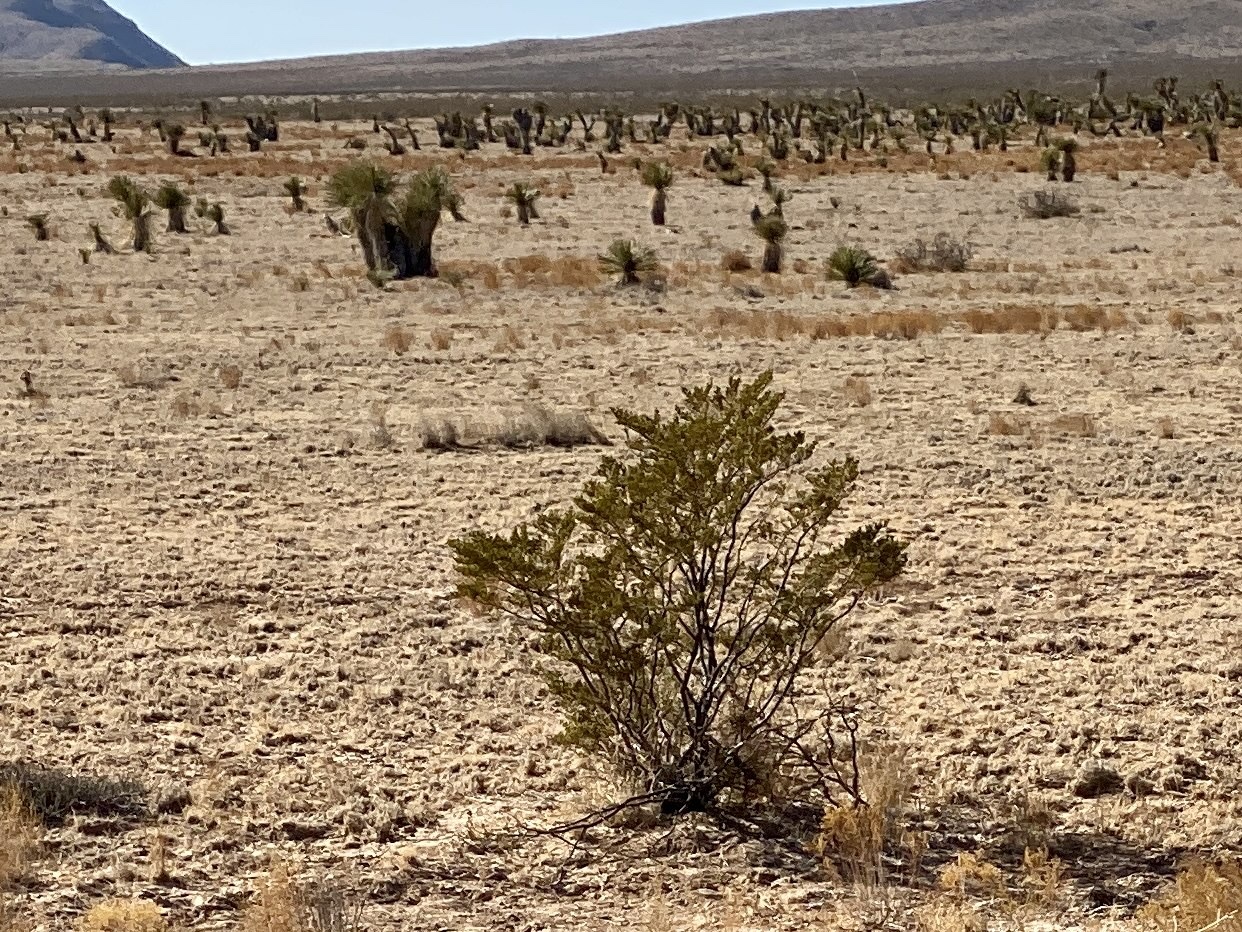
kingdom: Plantae
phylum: Tracheophyta
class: Magnoliopsida
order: Zygophyllales
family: Zygophyllaceae
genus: Larrea
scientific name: Larrea tridentata
